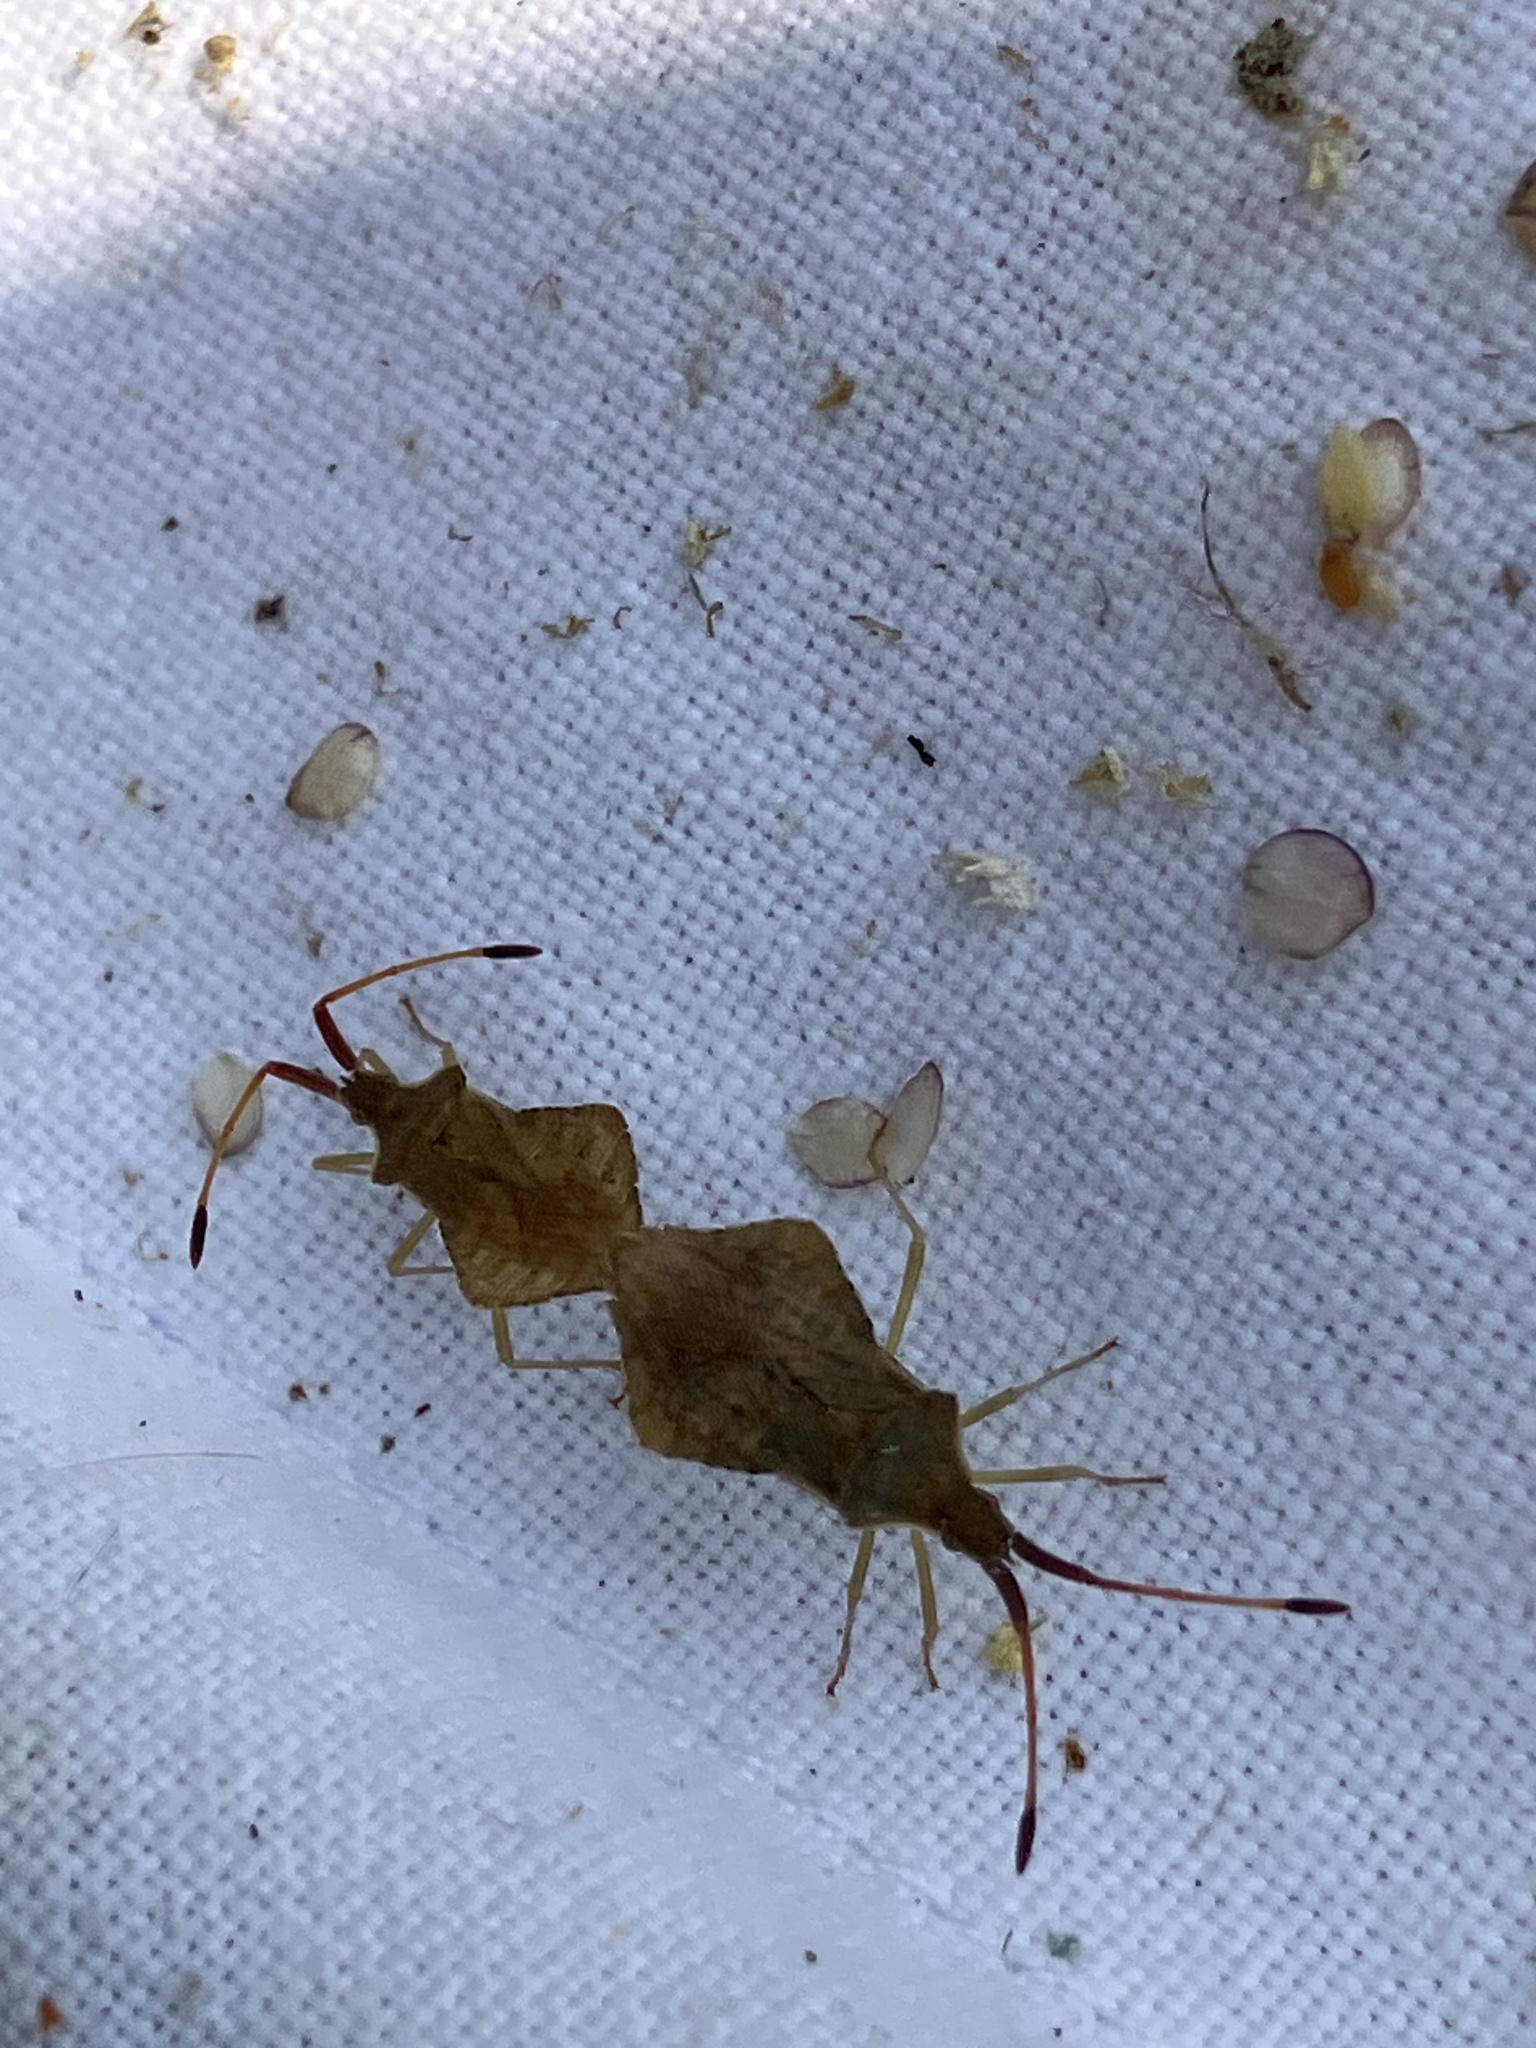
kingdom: Animalia
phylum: Arthropoda
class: Insecta
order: Hemiptera
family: Coreidae
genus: Syromastus
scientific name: Syromastus rhombeus
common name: Rhombic leatherbug
